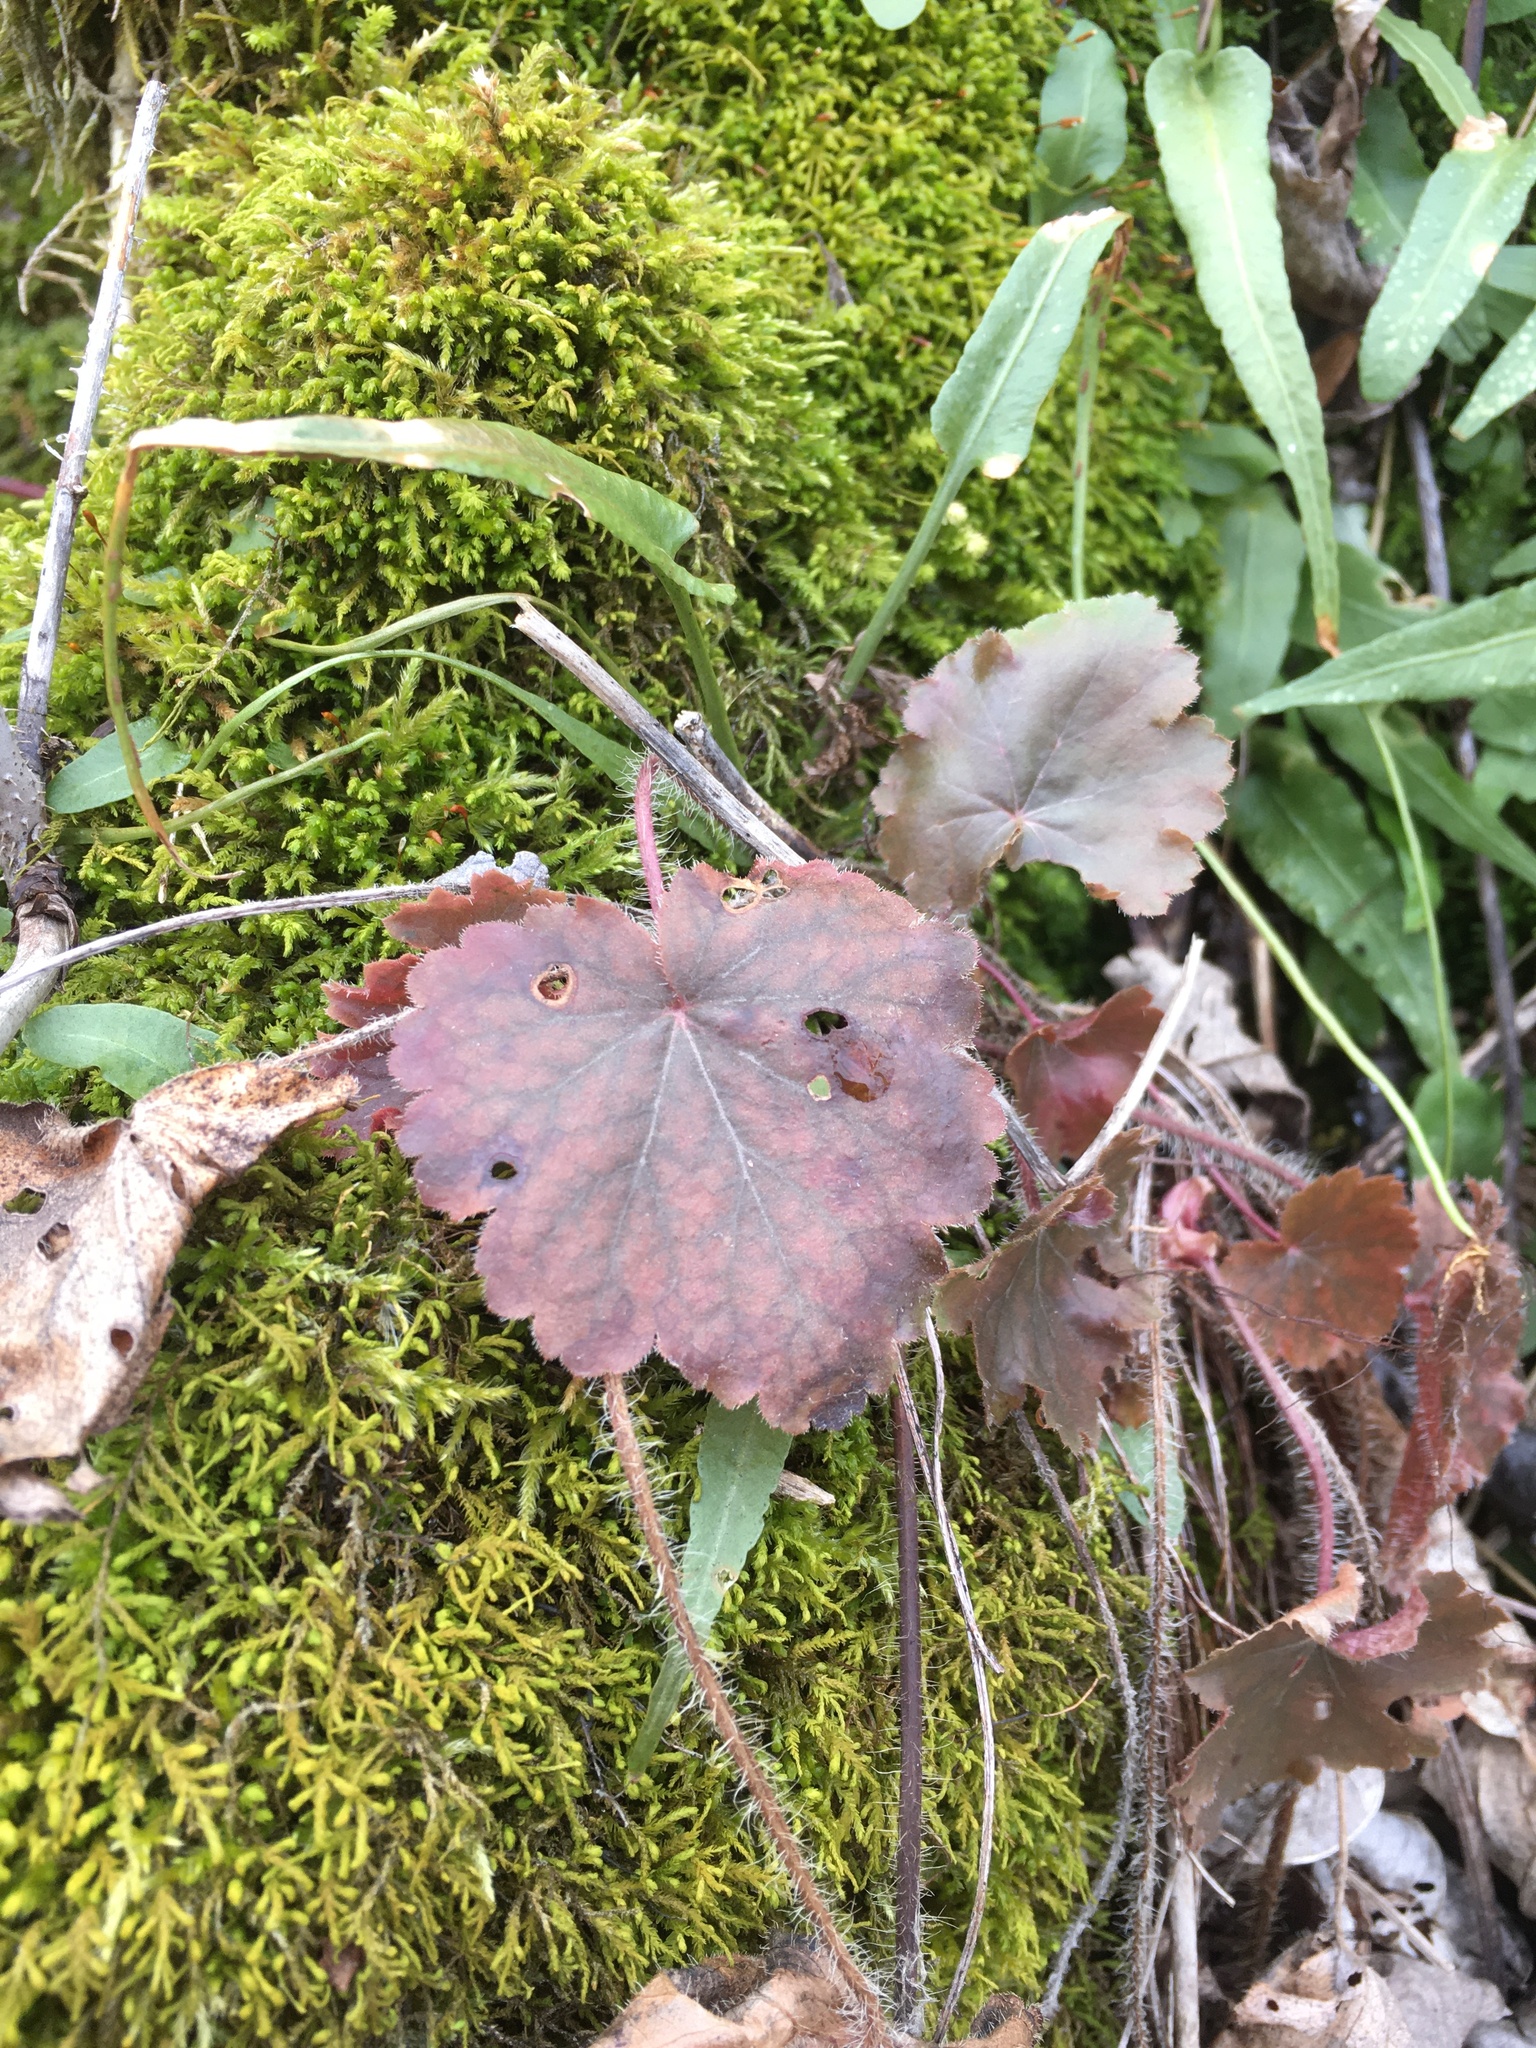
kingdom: Plantae
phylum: Tracheophyta
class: Magnoliopsida
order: Saxifragales
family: Saxifragaceae
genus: Heuchera
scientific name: Heuchera richardsonii
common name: Richardson's alumroot
